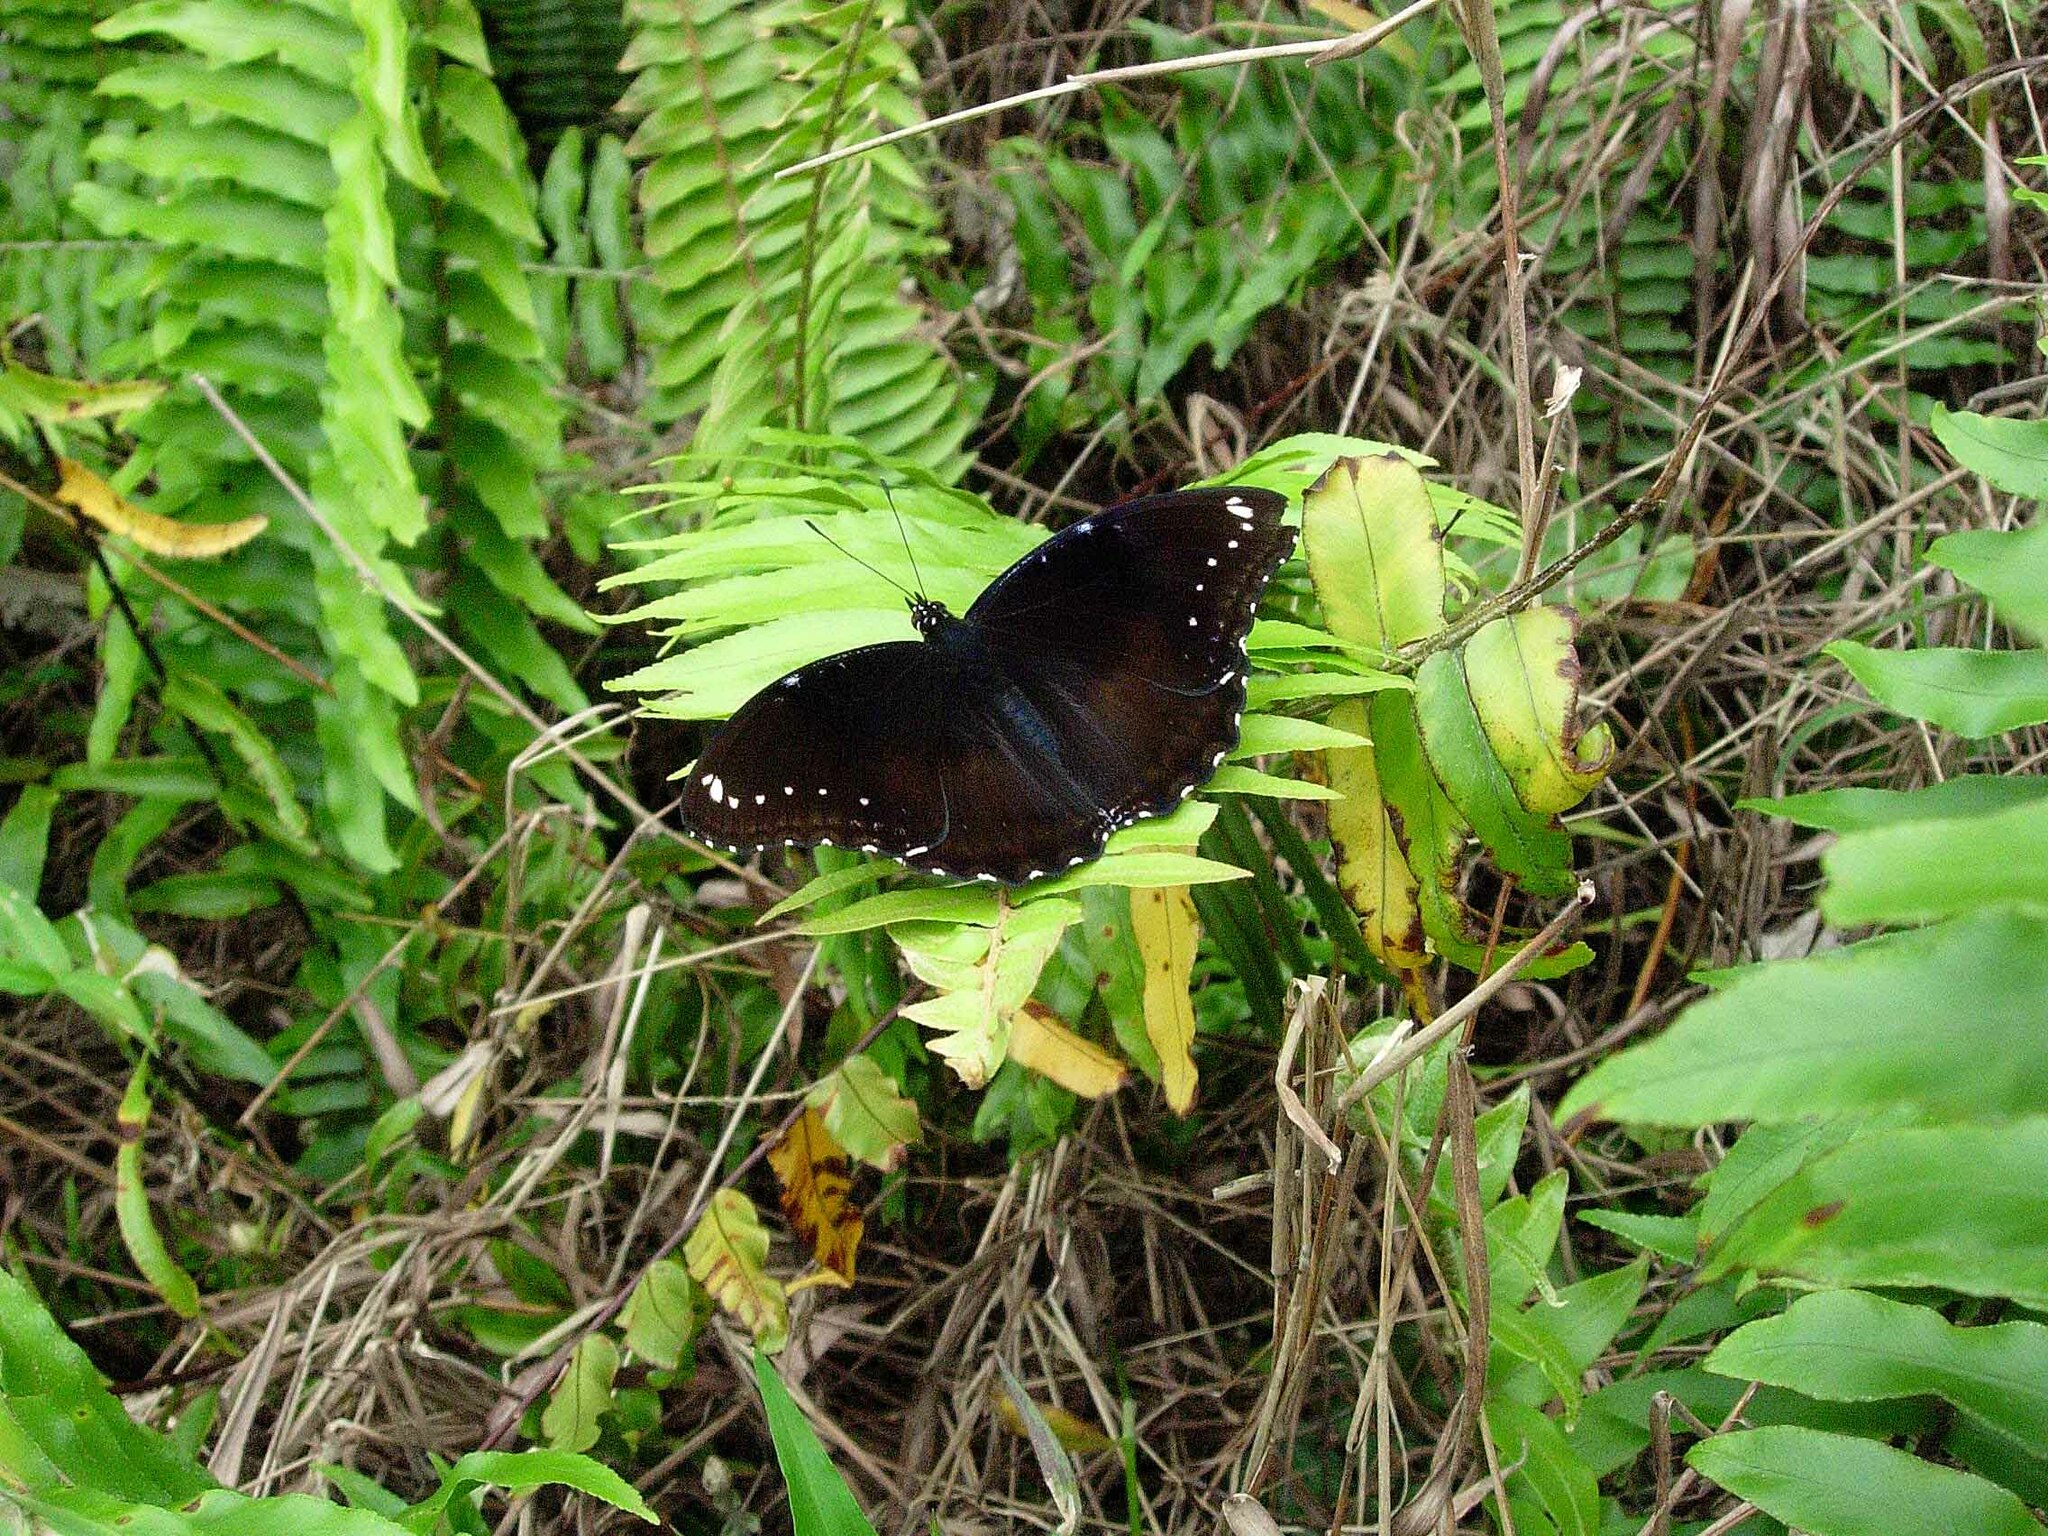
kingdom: Animalia
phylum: Arthropoda
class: Insecta
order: Lepidoptera
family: Nymphalidae
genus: Hypolimnas
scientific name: Hypolimnas bolina
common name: Great eggfly
